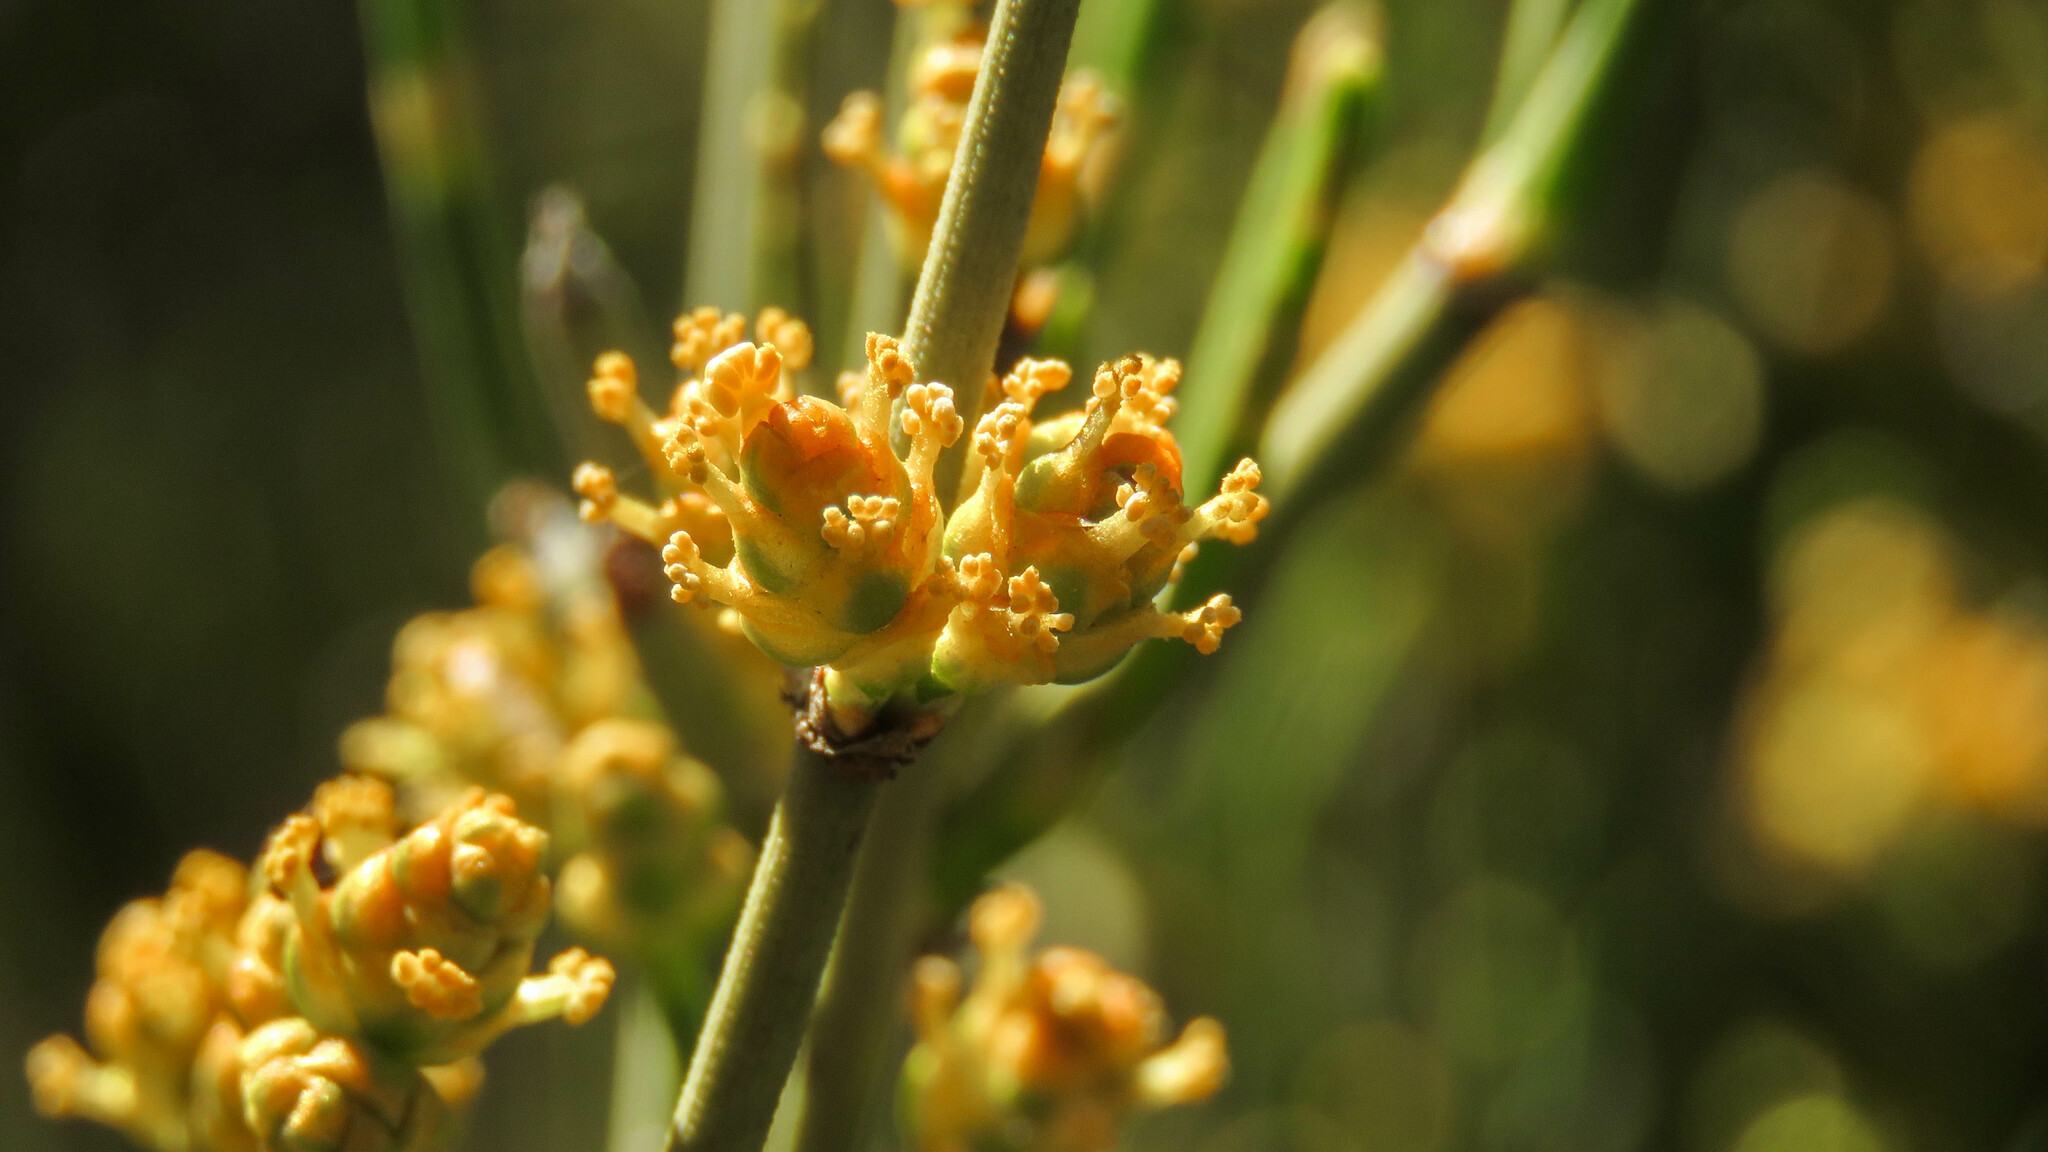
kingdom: Plantae
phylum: Tracheophyta
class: Gnetopsida
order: Ephedrales
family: Ephedraceae
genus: Ephedra
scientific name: Ephedra chilensis
